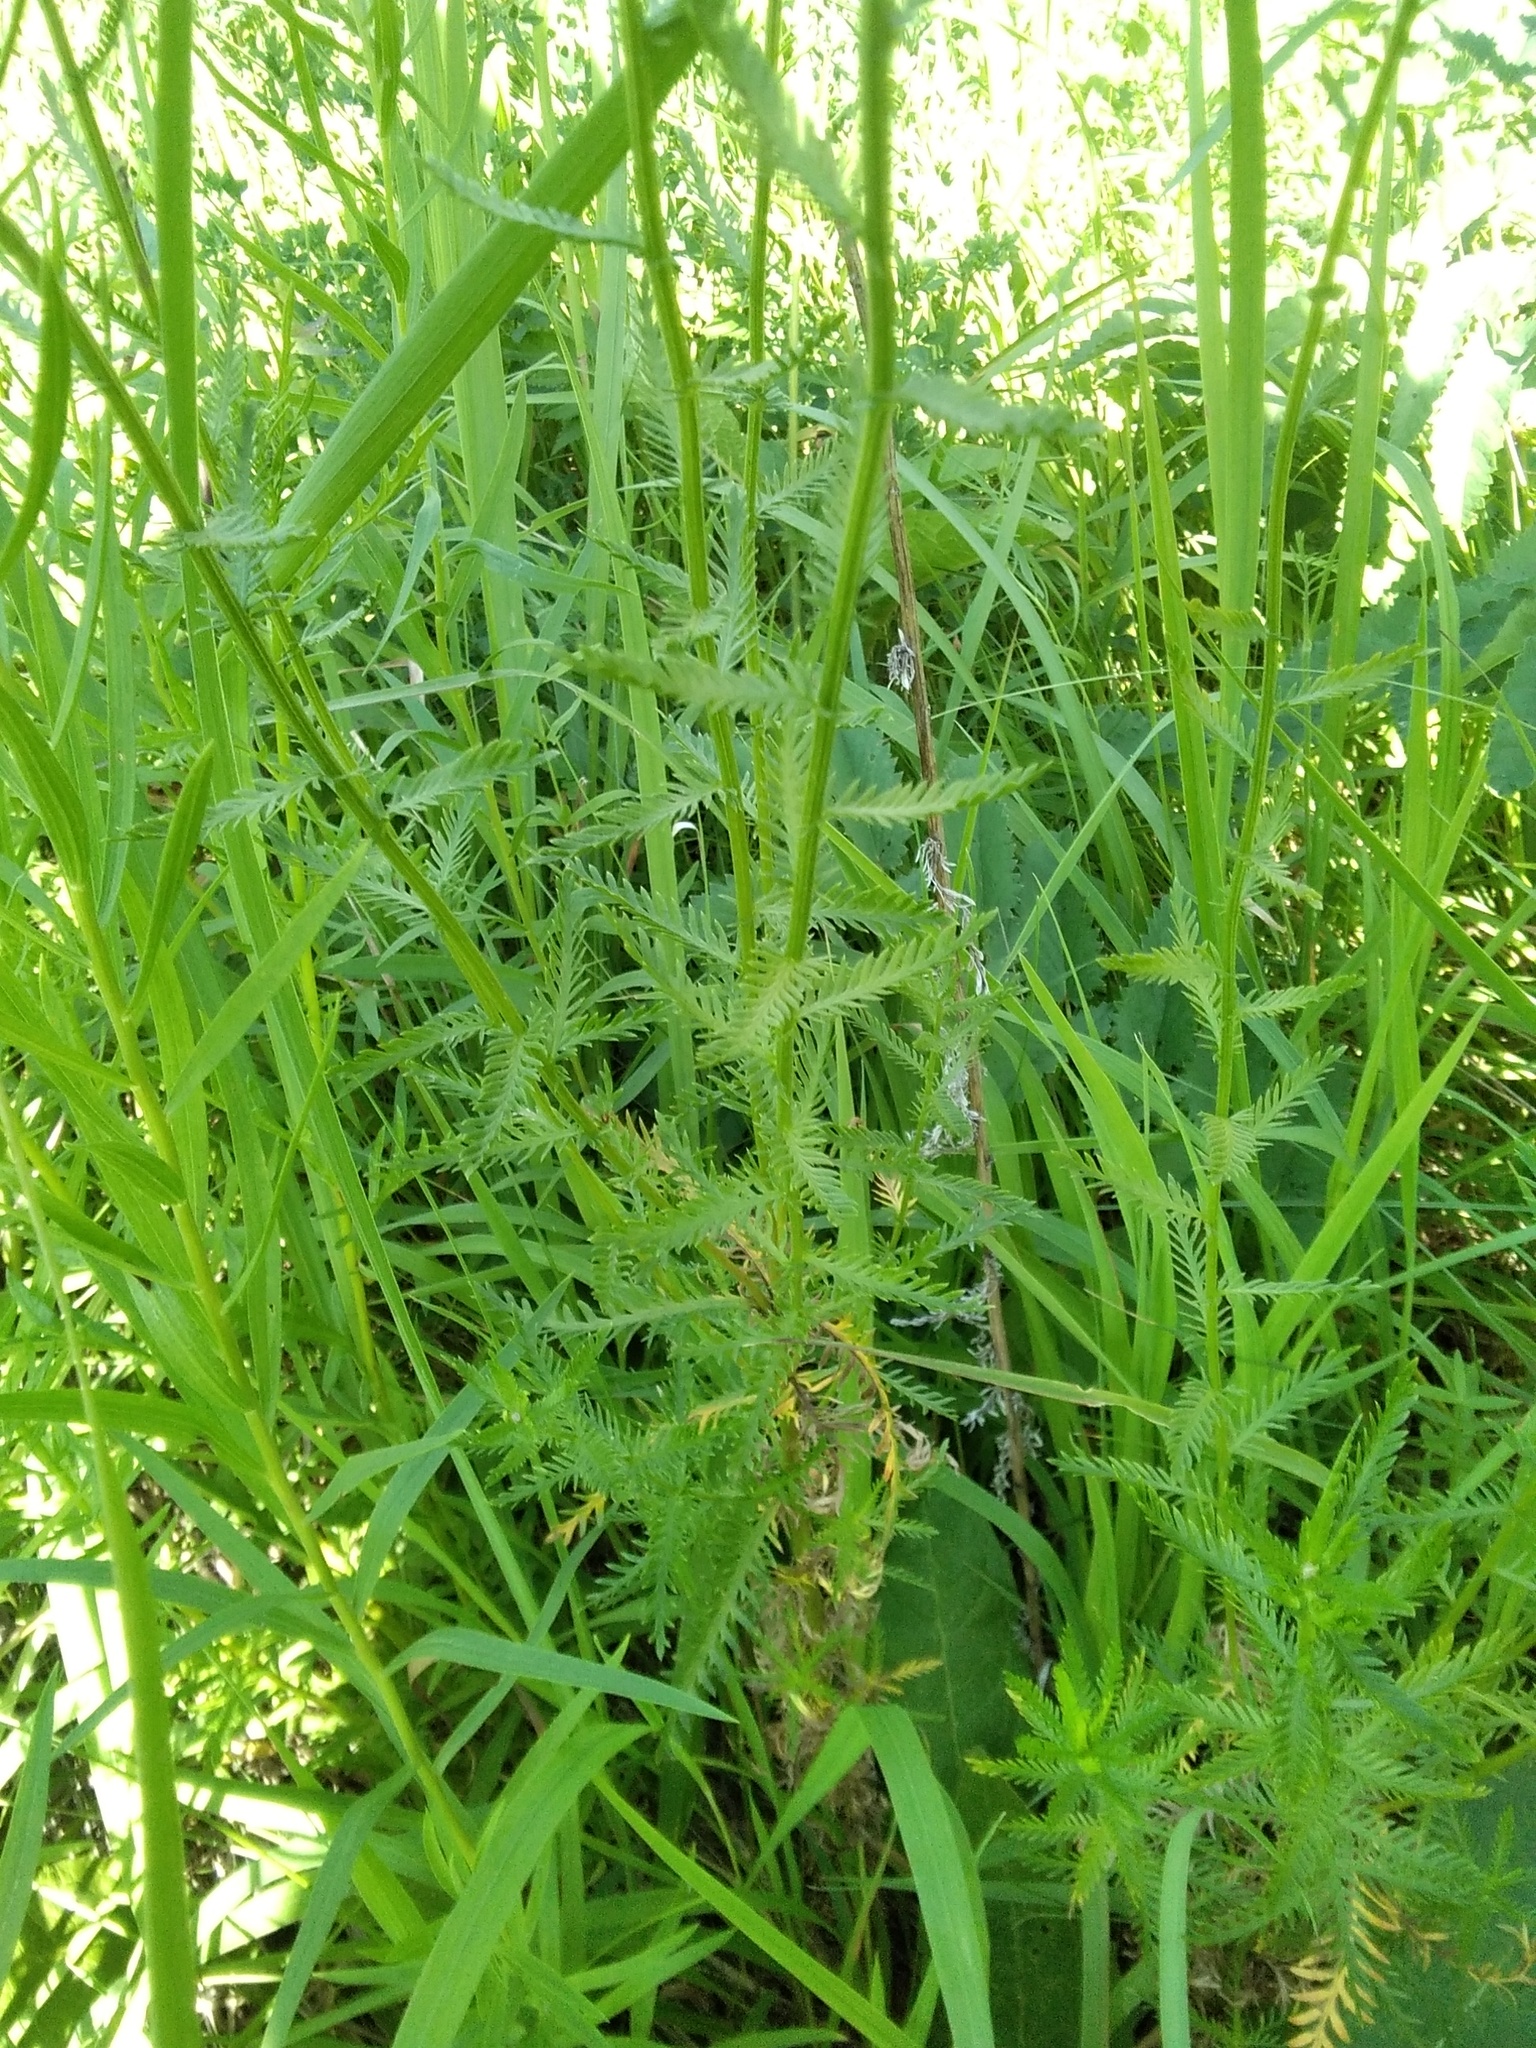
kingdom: Plantae
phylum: Tracheophyta
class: Magnoliopsida
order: Asterales
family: Asteraceae
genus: Achillea
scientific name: Achillea salicifolia
